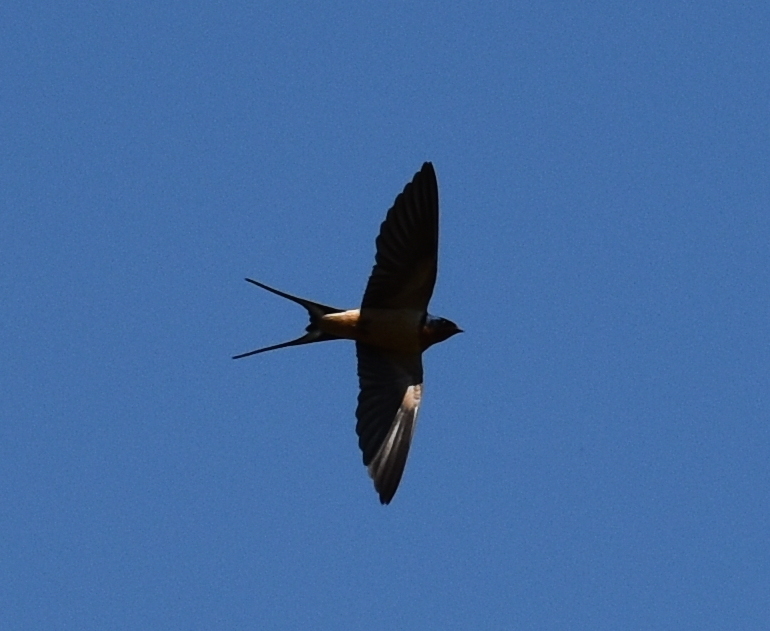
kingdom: Animalia
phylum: Chordata
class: Aves
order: Passeriformes
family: Hirundinidae
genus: Hirundo
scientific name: Hirundo rustica
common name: Barn swallow
